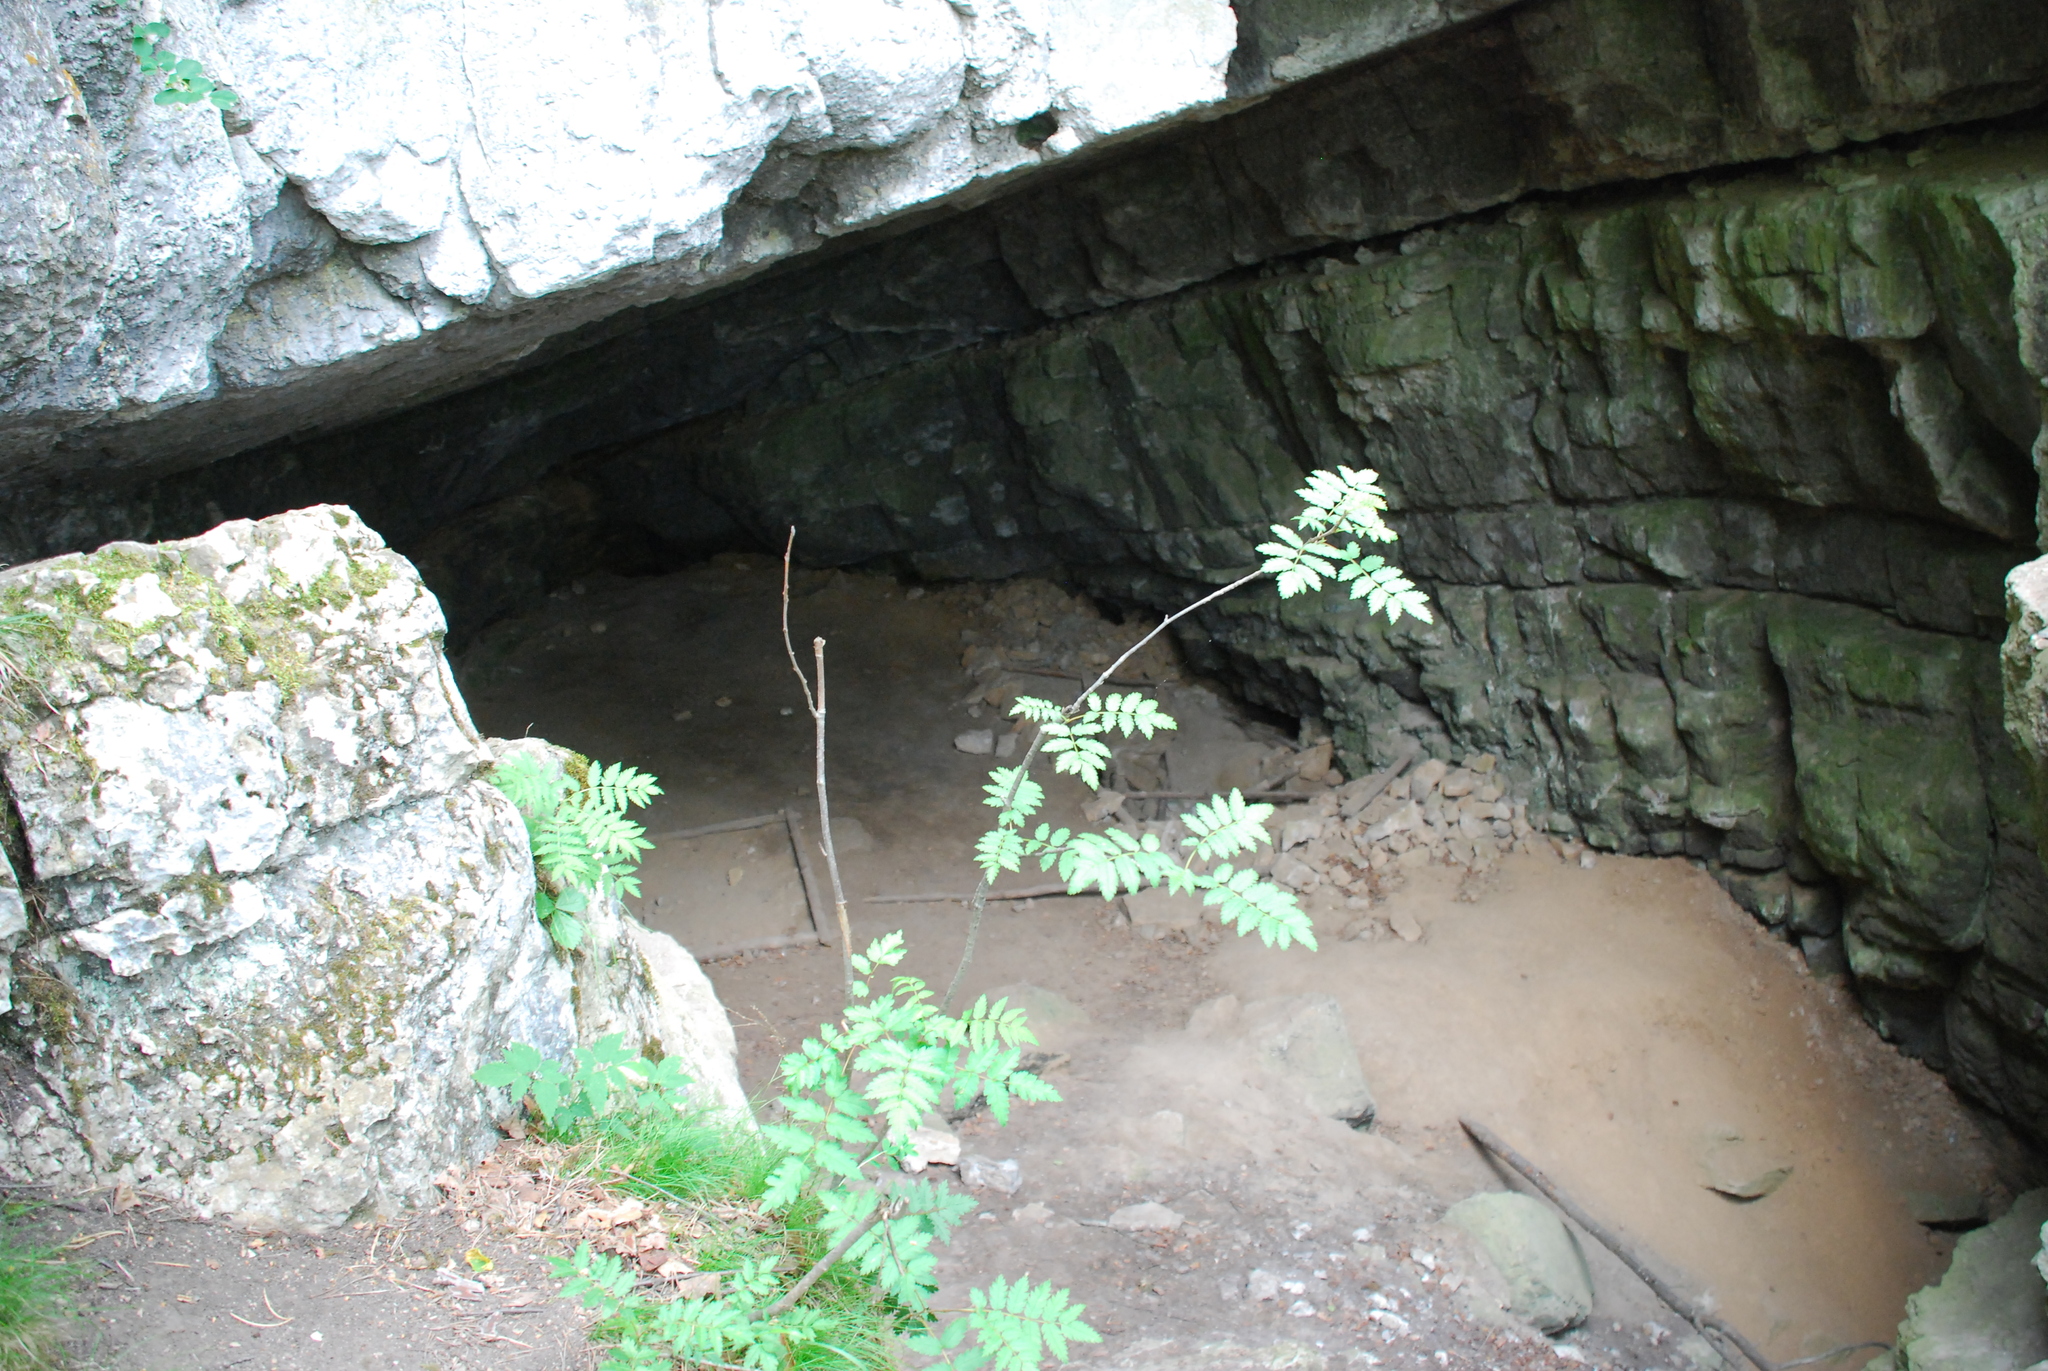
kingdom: Plantae
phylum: Tracheophyta
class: Magnoliopsida
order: Rosales
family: Rosaceae
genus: Sorbus
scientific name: Sorbus aucuparia
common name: Rowan
